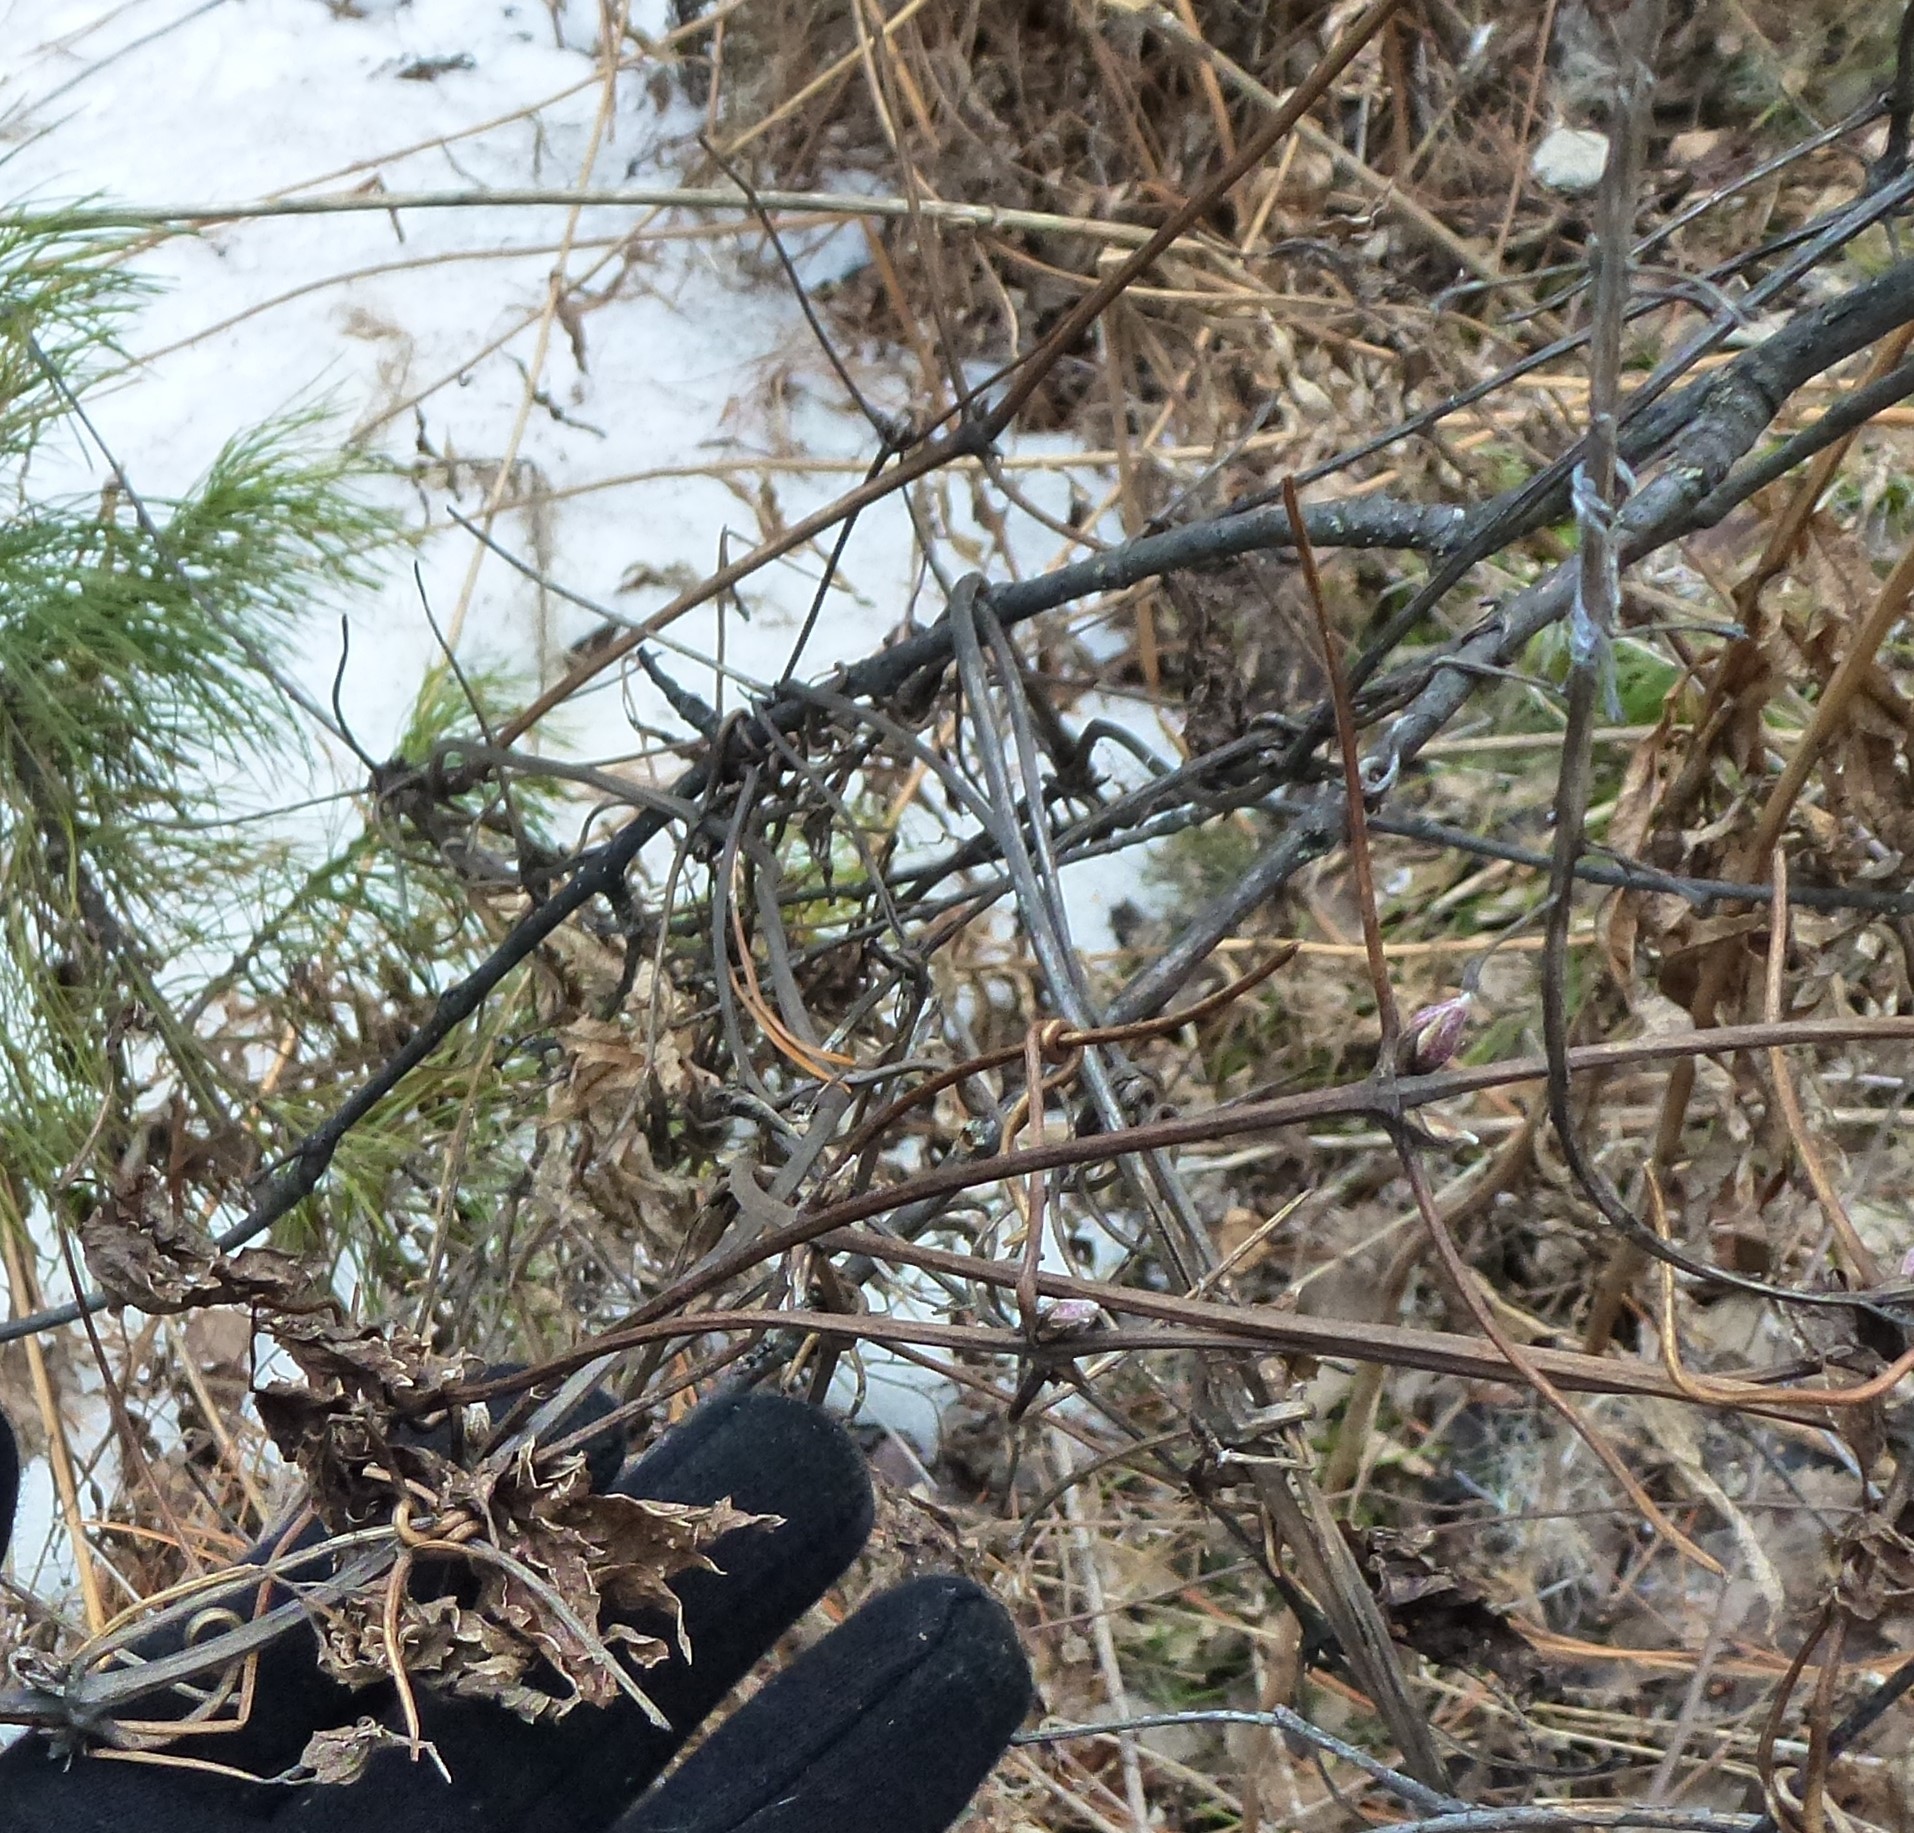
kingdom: Plantae
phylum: Tracheophyta
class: Magnoliopsida
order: Ranunculales
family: Ranunculaceae
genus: Clematis
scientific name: Clematis sibirica
